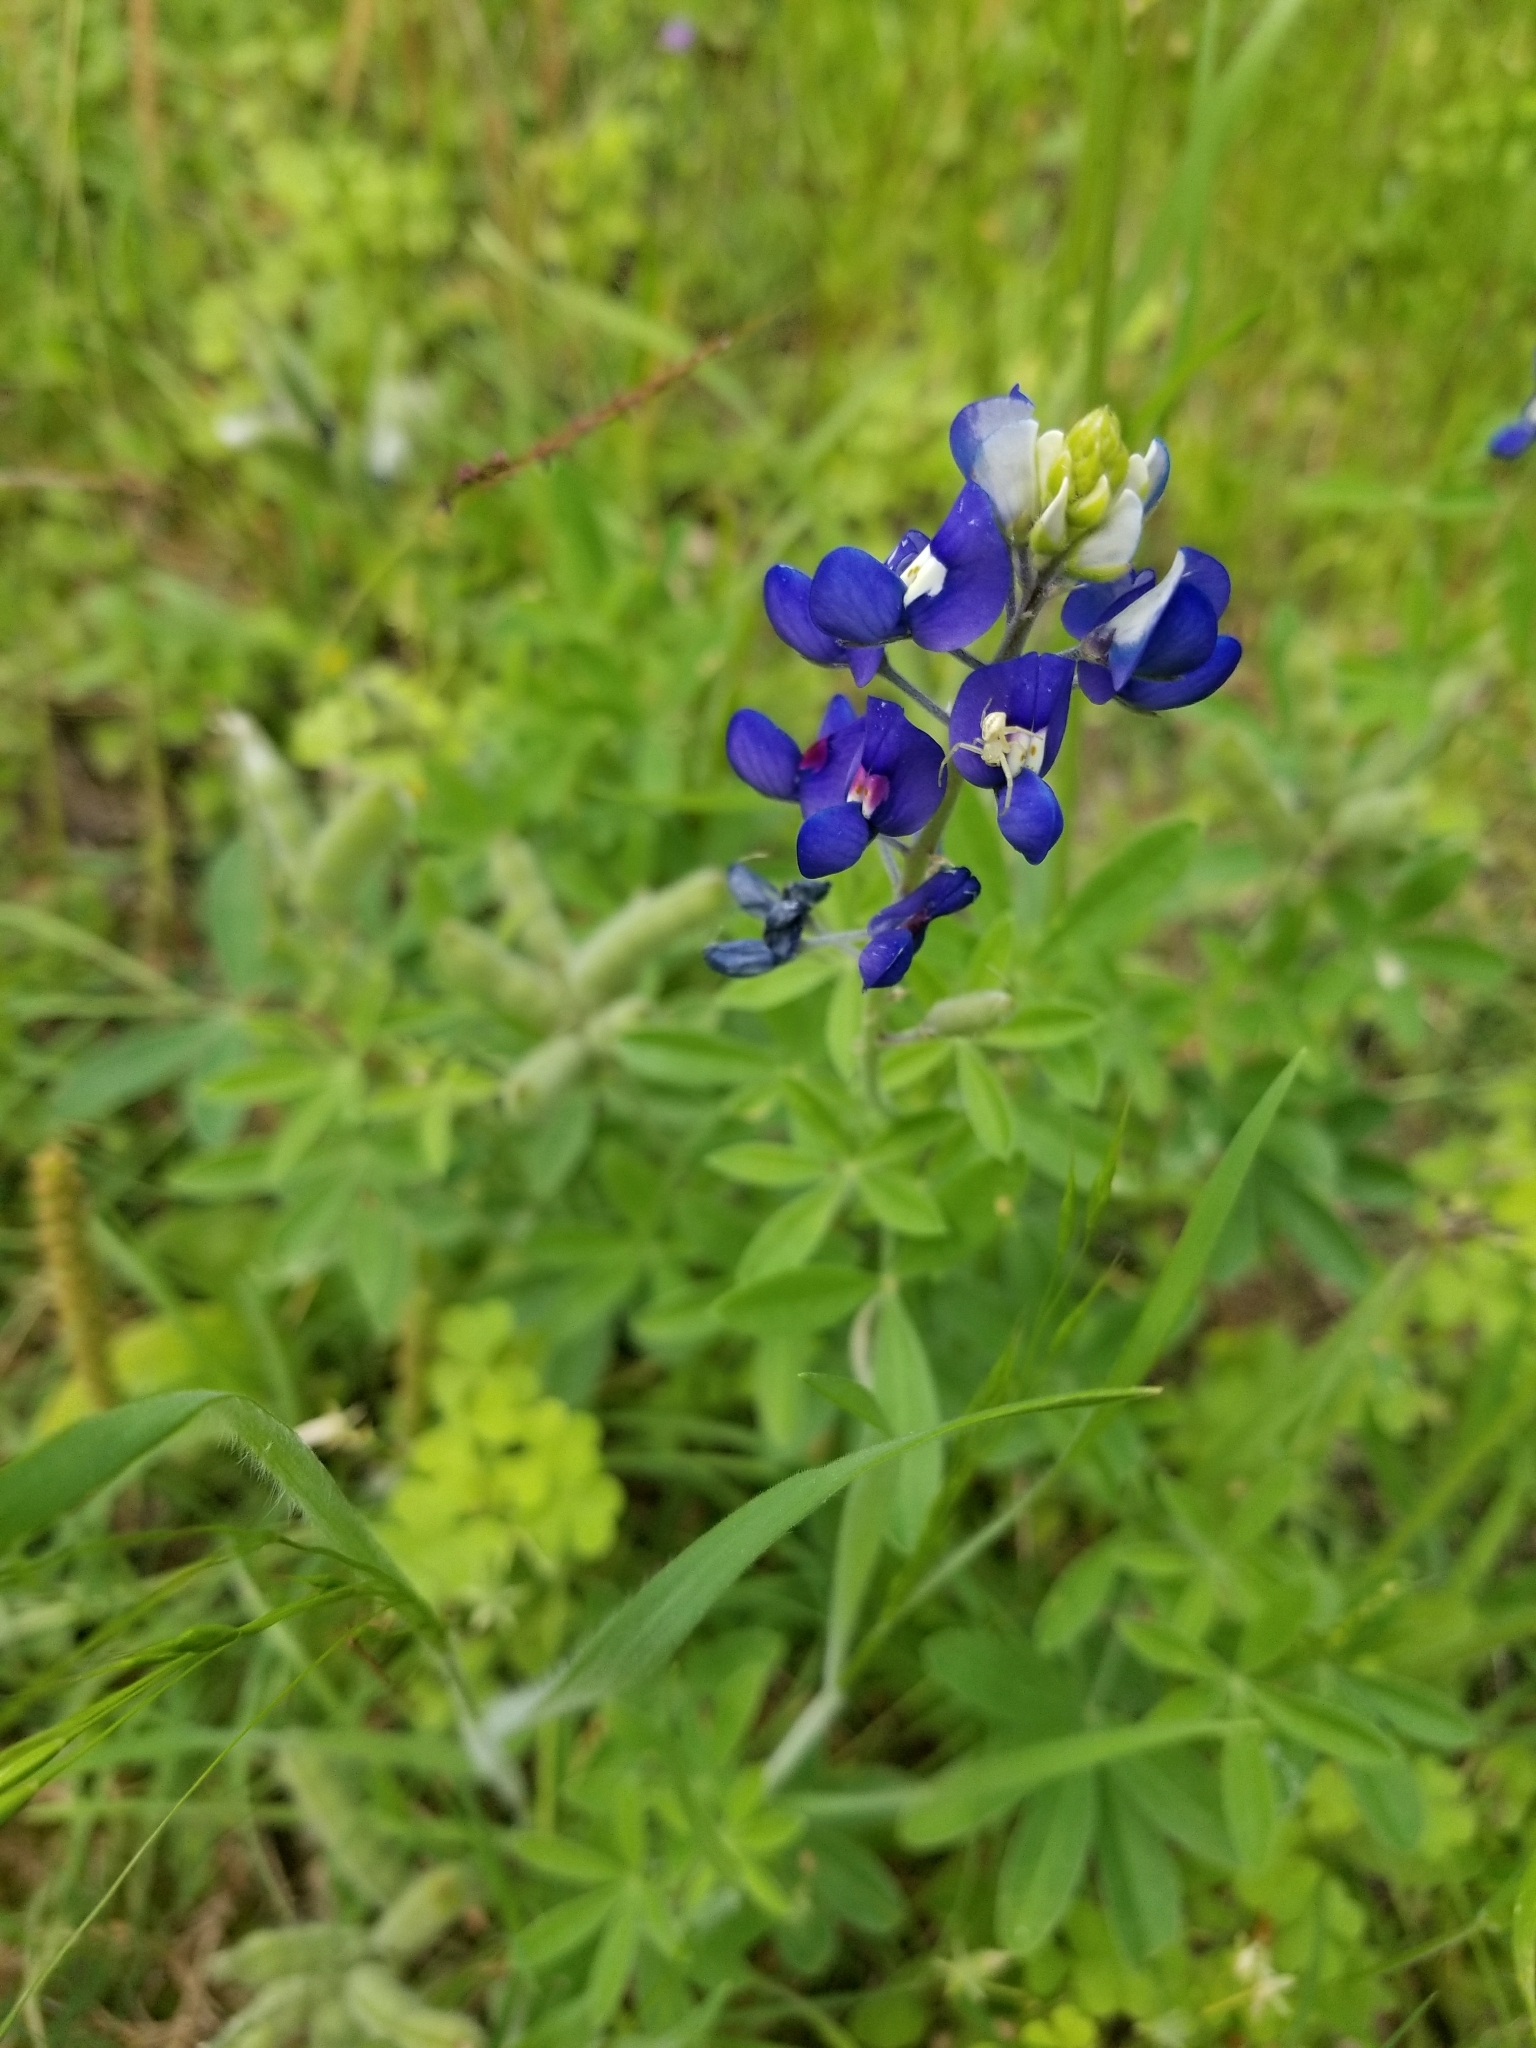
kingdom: Plantae
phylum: Tracheophyta
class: Magnoliopsida
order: Fabales
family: Fabaceae
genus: Lupinus
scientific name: Lupinus texensis
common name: Texas bluebonnet
